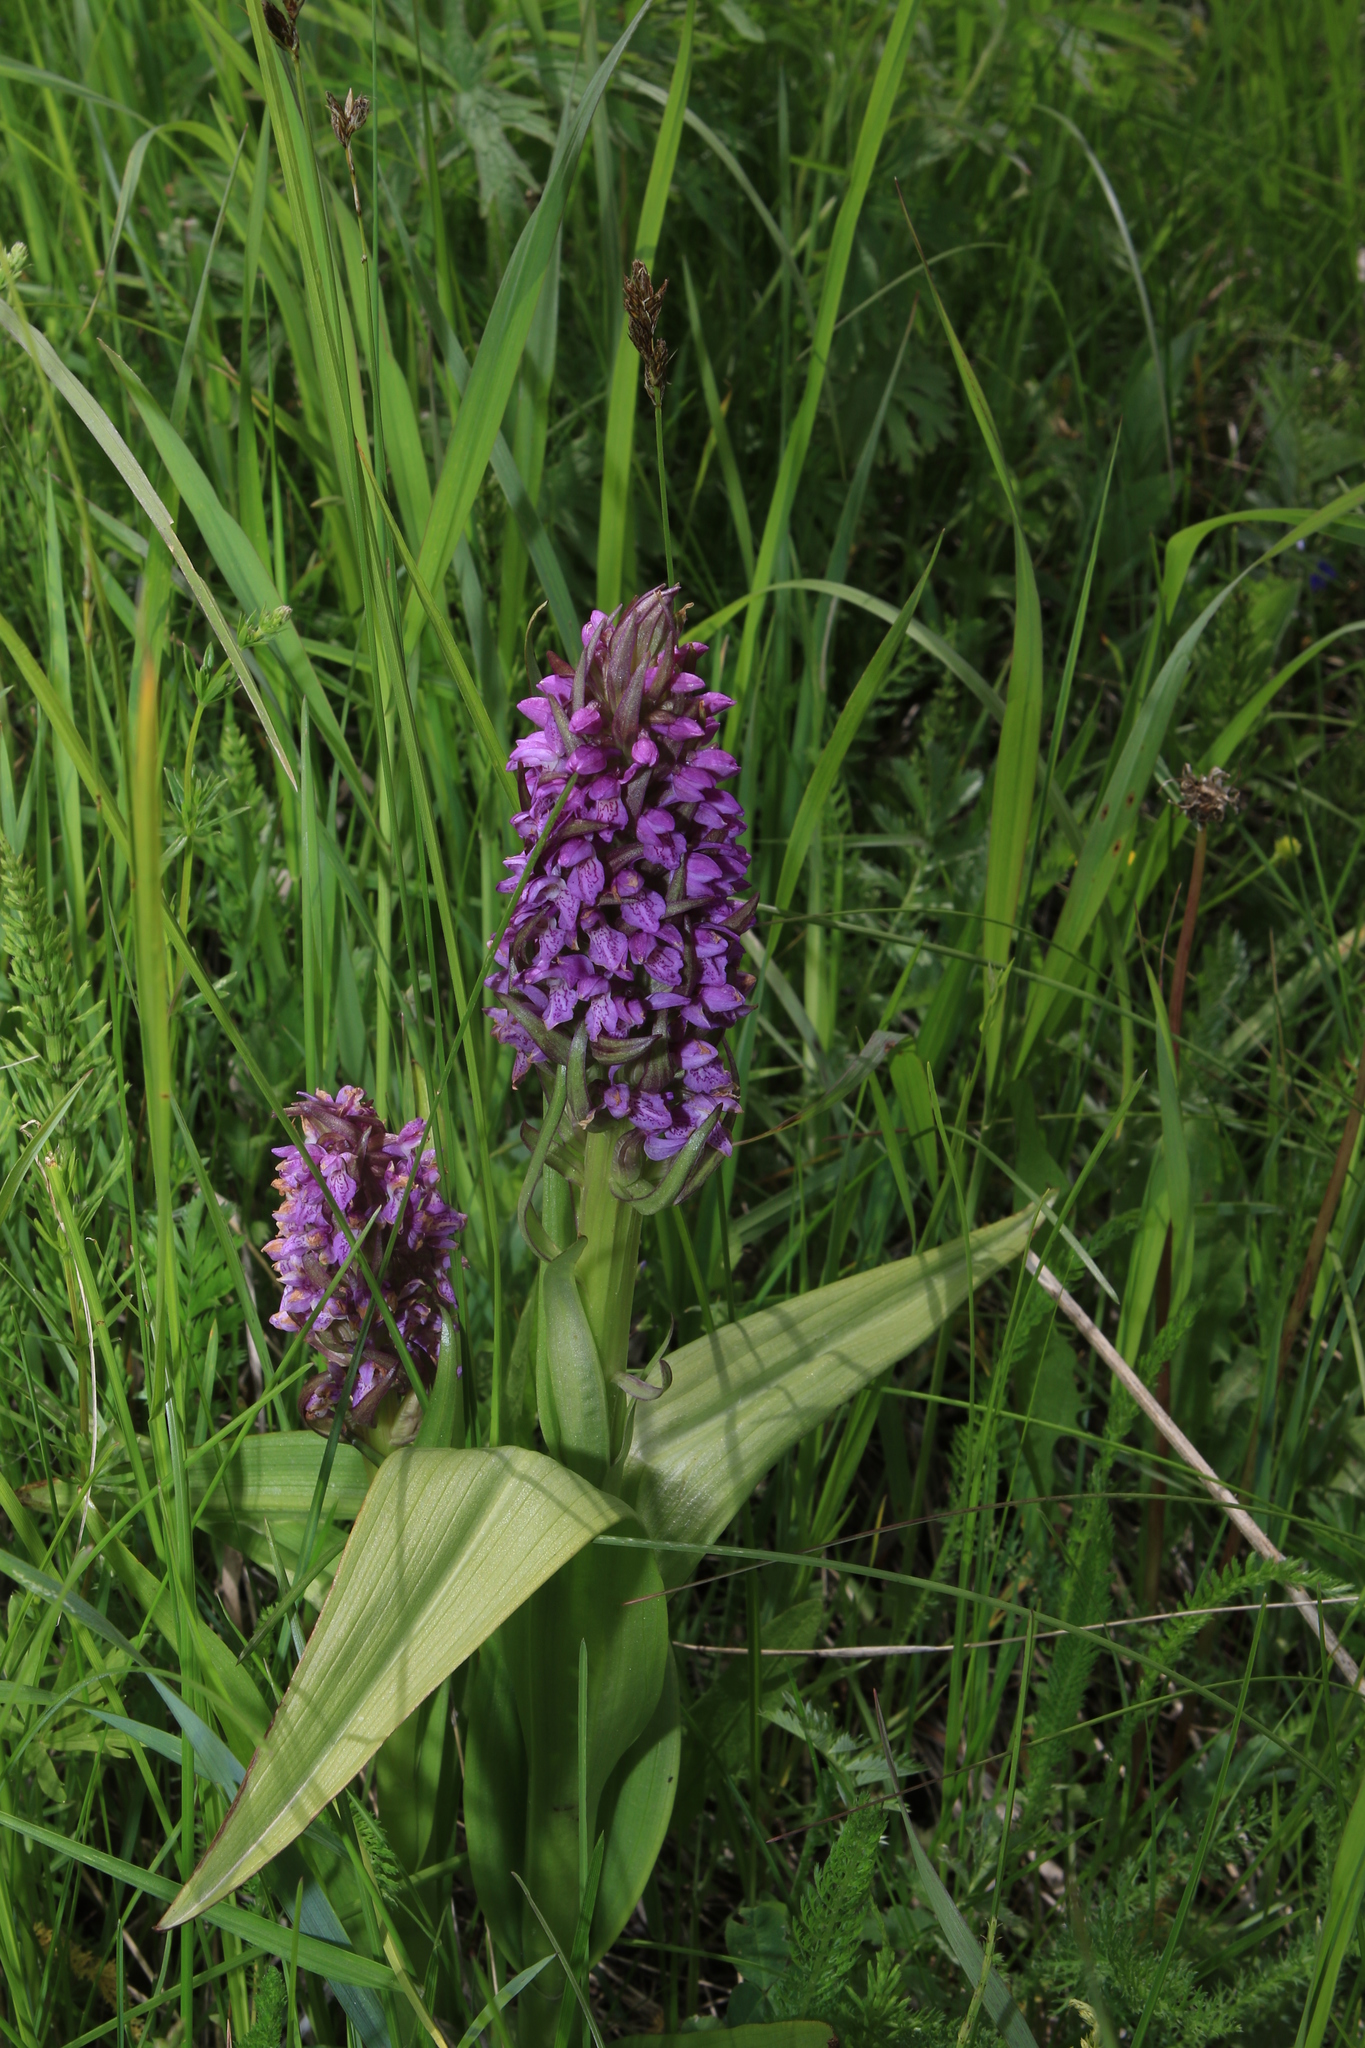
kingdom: Plantae
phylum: Tracheophyta
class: Liliopsida
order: Asparagales
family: Orchidaceae
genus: Dactylorhiza
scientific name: Dactylorhiza incarnata
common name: Early marsh-orchid
